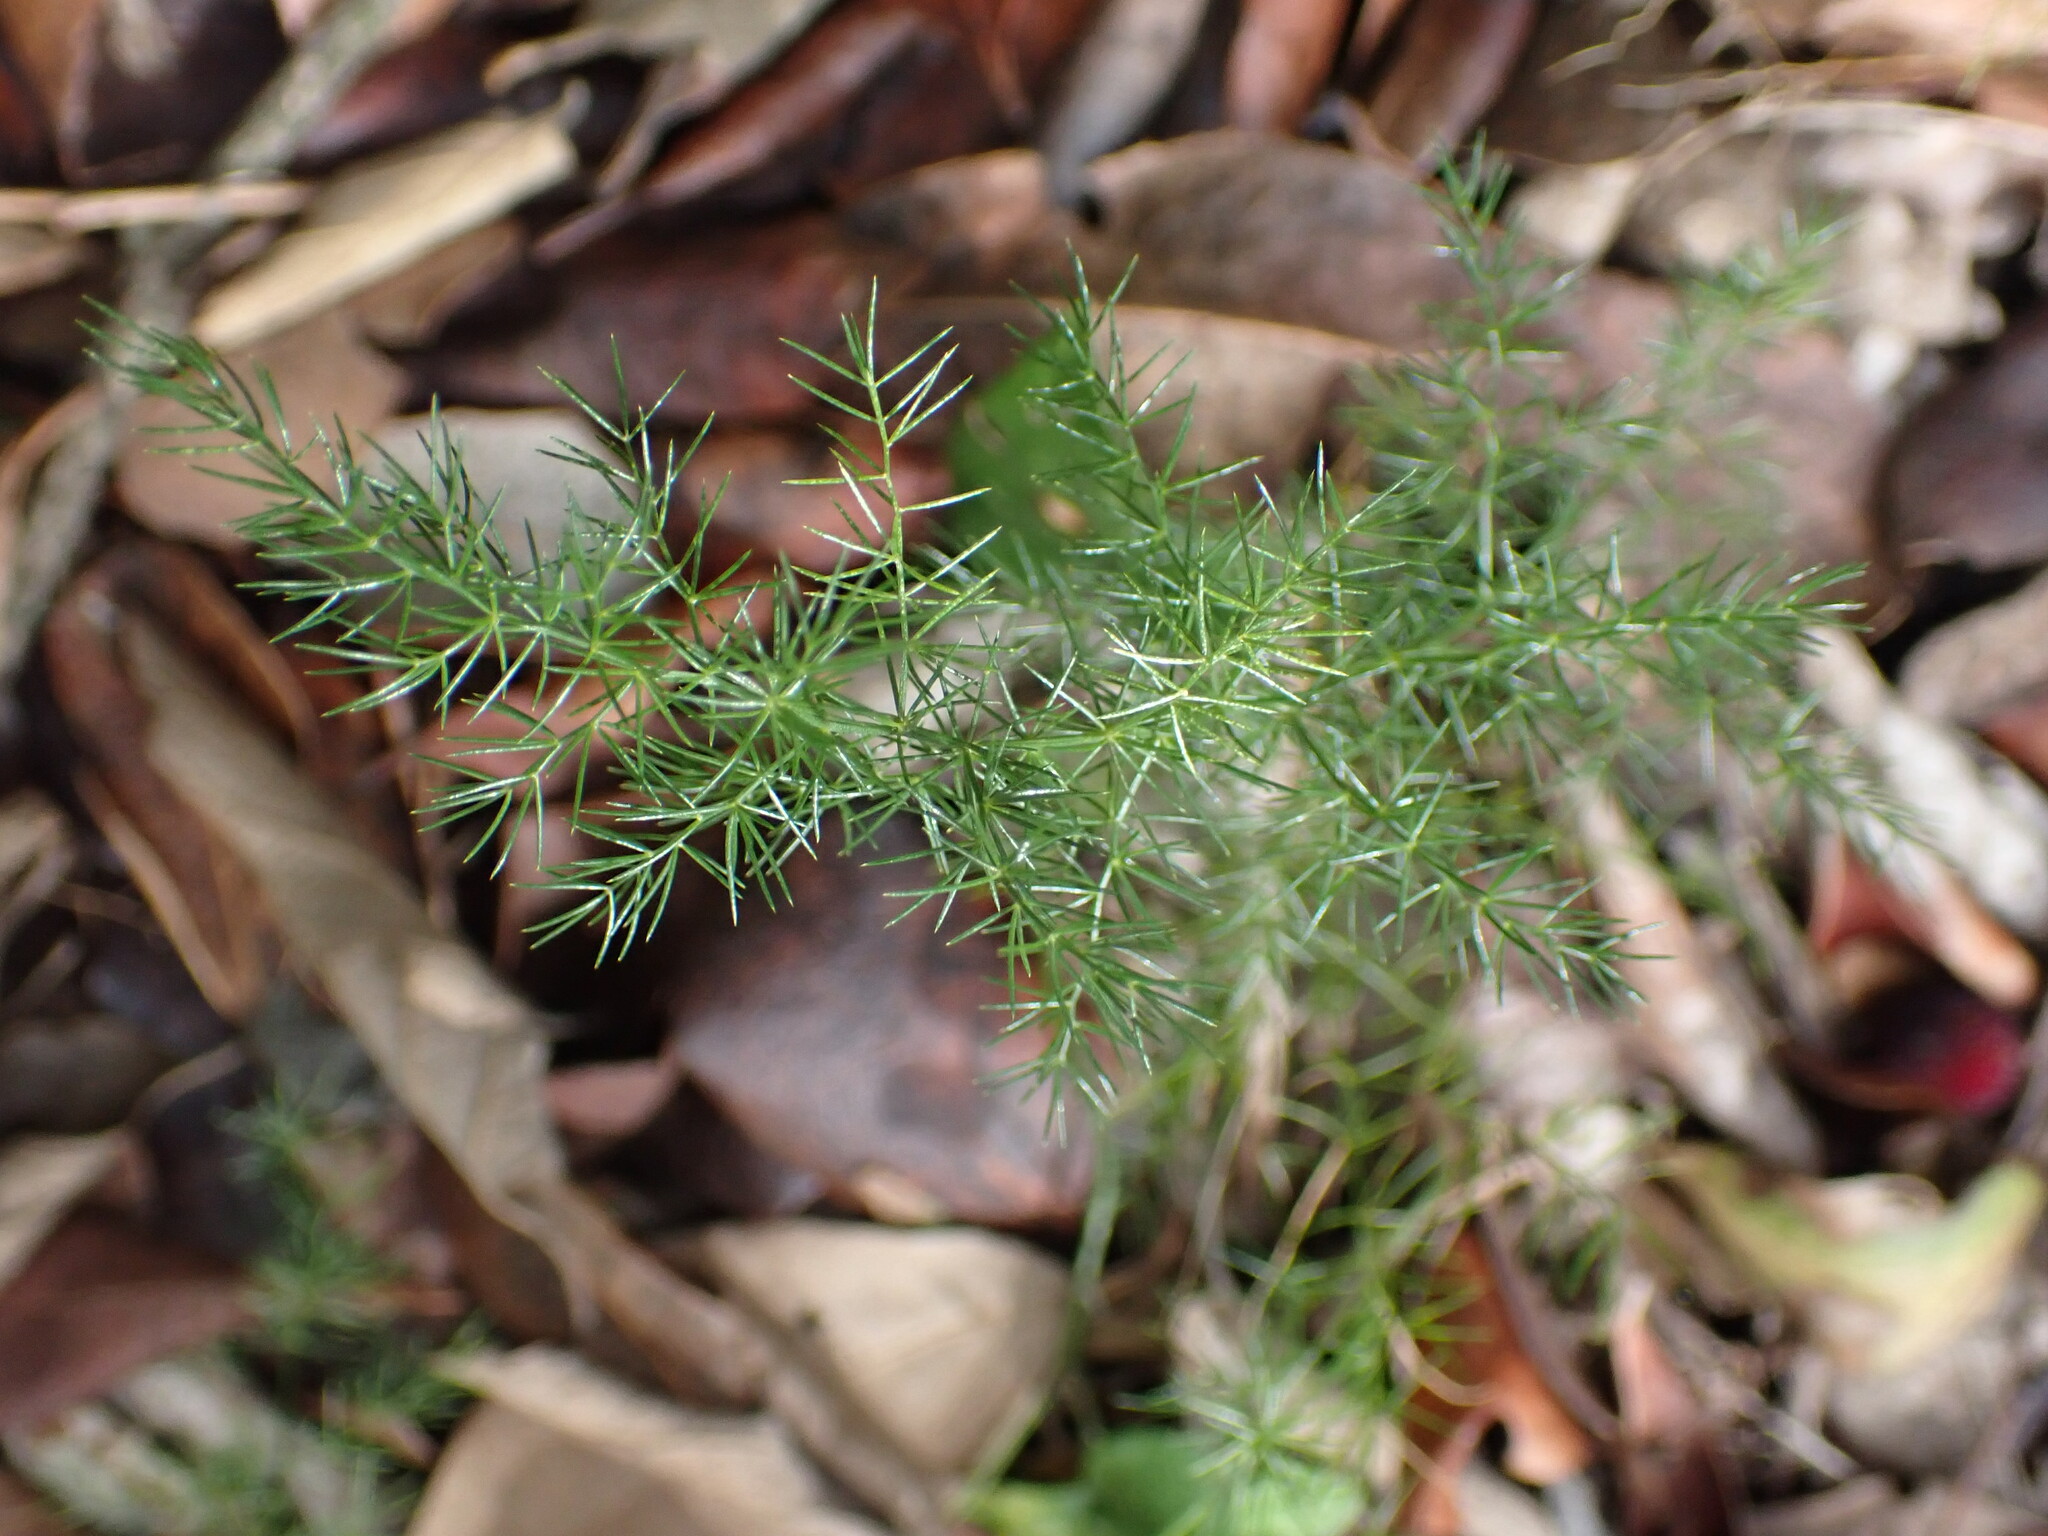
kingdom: Plantae
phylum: Tracheophyta
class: Liliopsida
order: Asparagales
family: Asparagaceae
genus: Asparagus
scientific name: Asparagus acutifolius
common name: Wild asparagus
